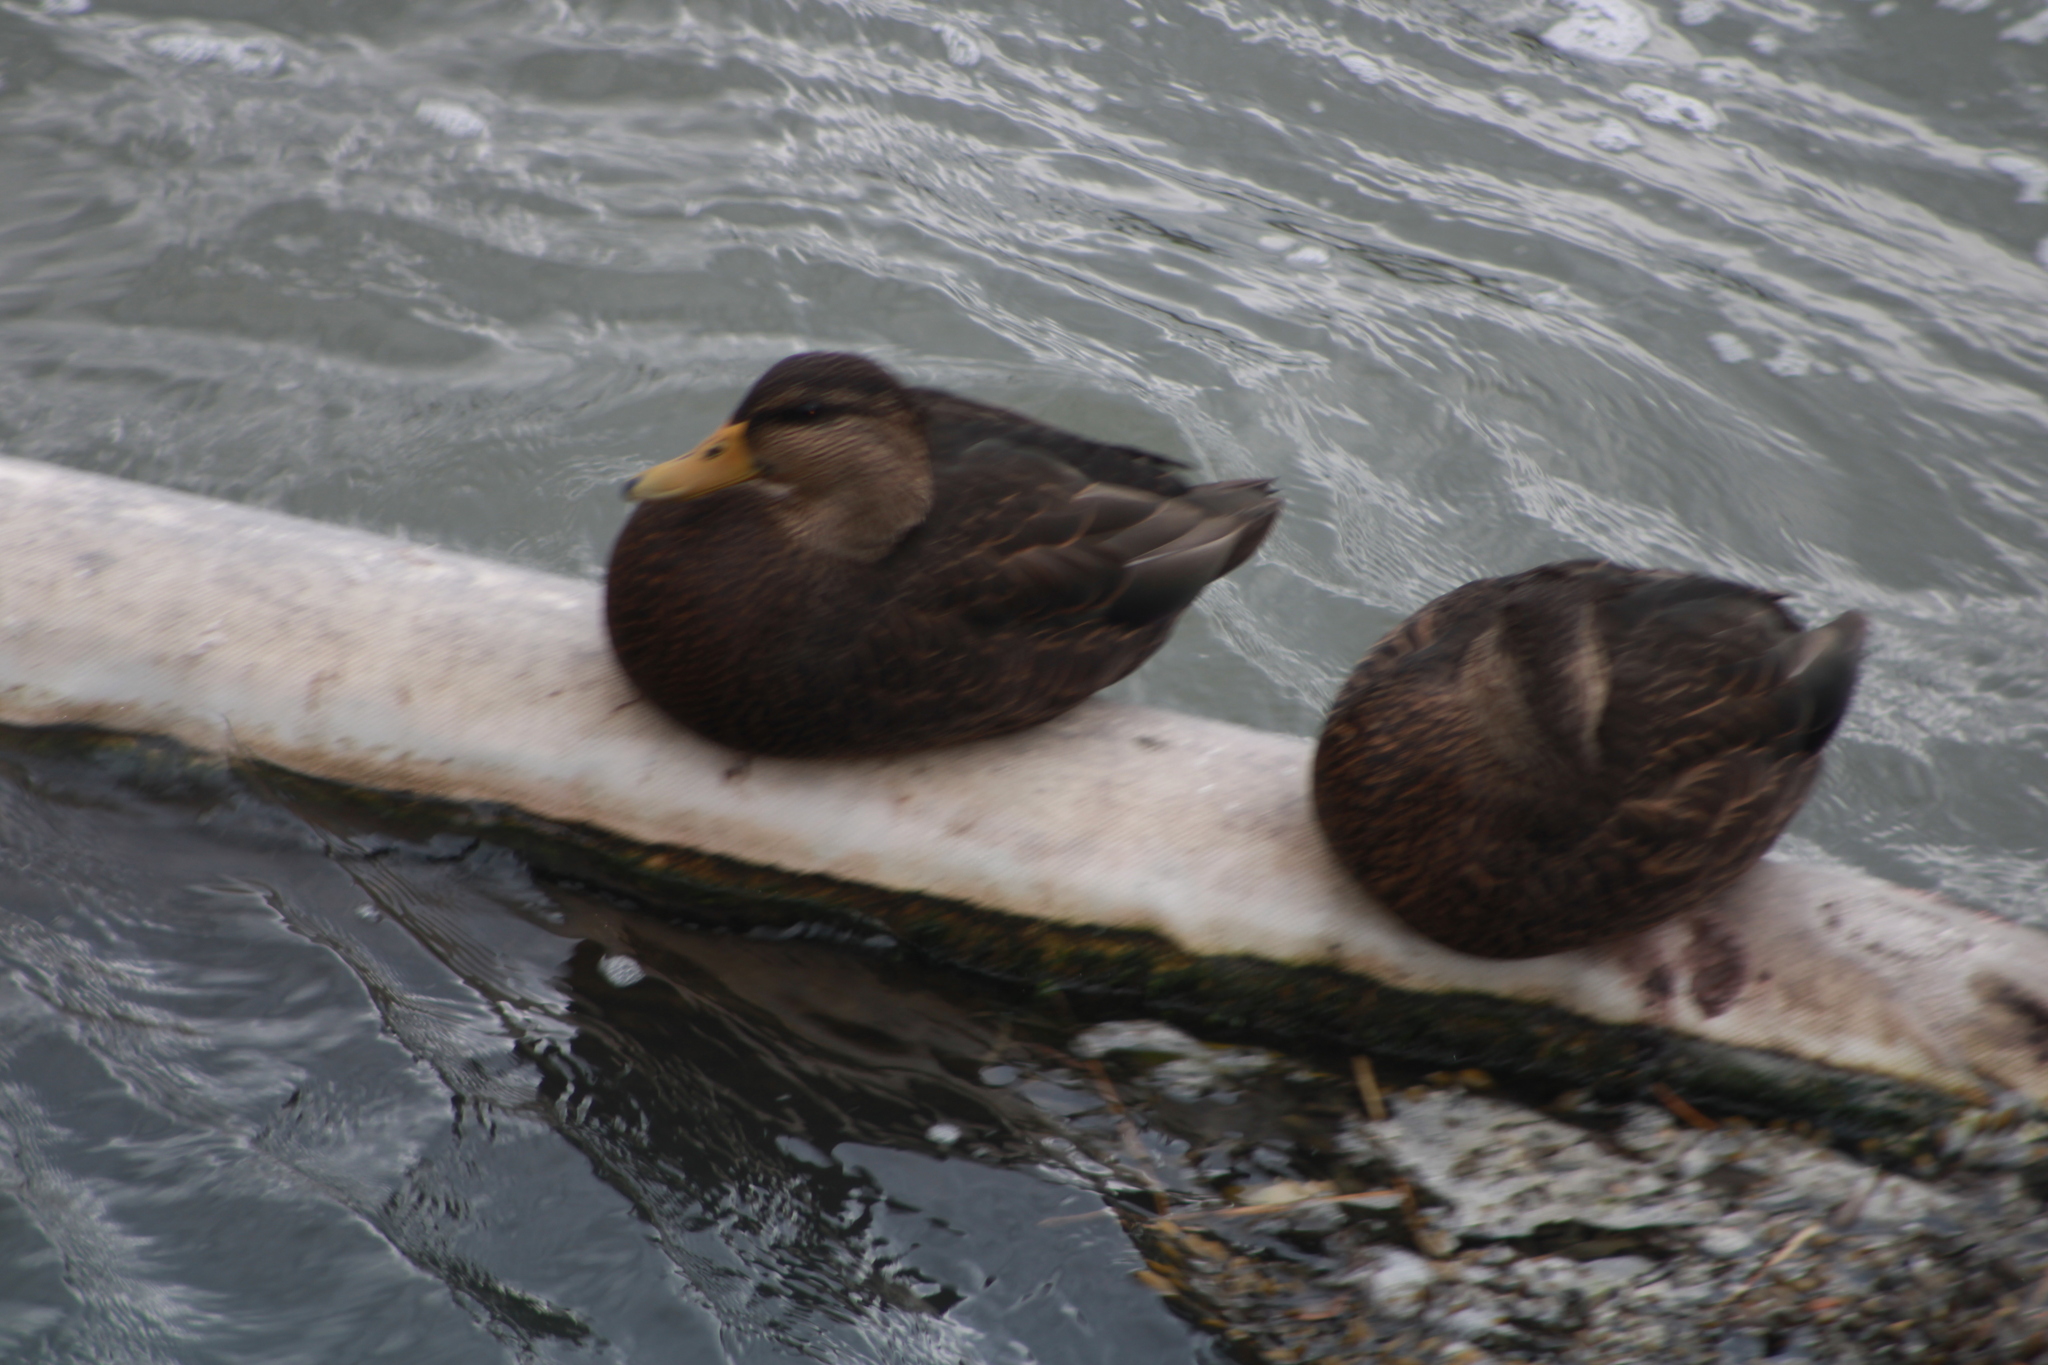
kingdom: Animalia
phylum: Chordata
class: Aves
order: Anseriformes
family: Anatidae
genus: Anas
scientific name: Anas rubripes
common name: American black duck
